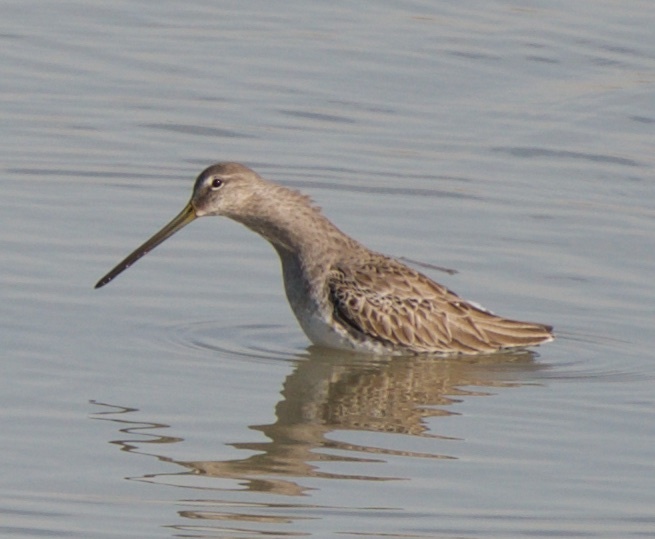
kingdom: Animalia
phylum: Chordata
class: Aves
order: Charadriiformes
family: Scolopacidae
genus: Limnodromus
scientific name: Limnodromus scolopaceus
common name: Long-billed dowitcher
